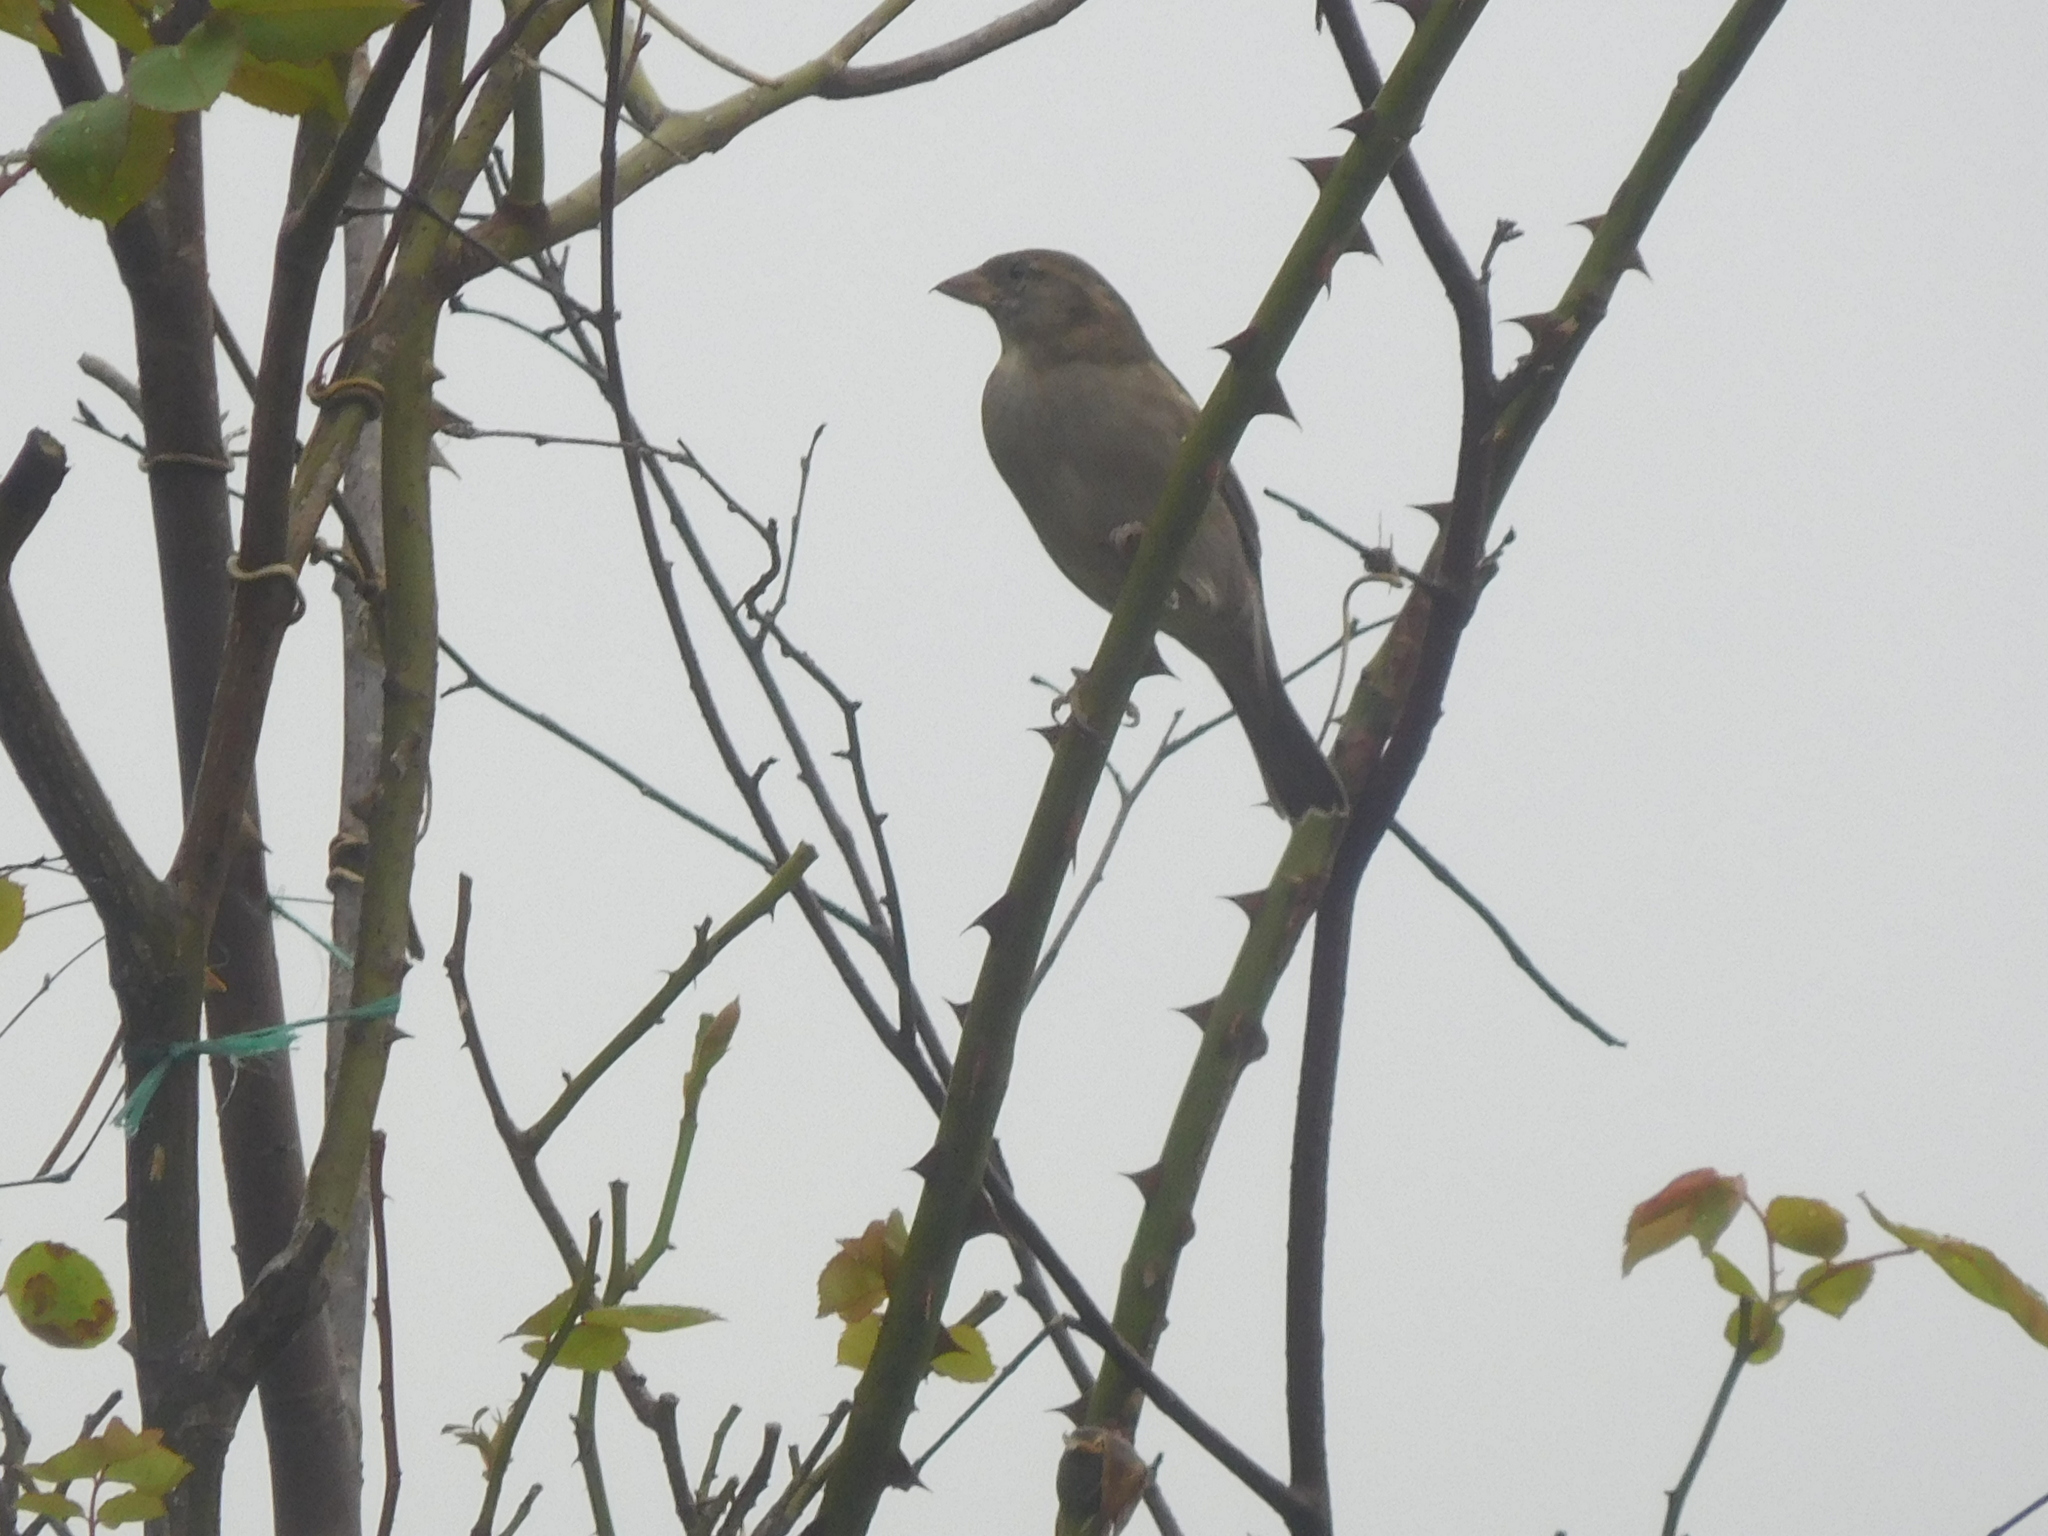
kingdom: Animalia
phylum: Chordata
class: Aves
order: Passeriformes
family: Passeridae
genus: Passer
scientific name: Passer domesticus
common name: House sparrow
